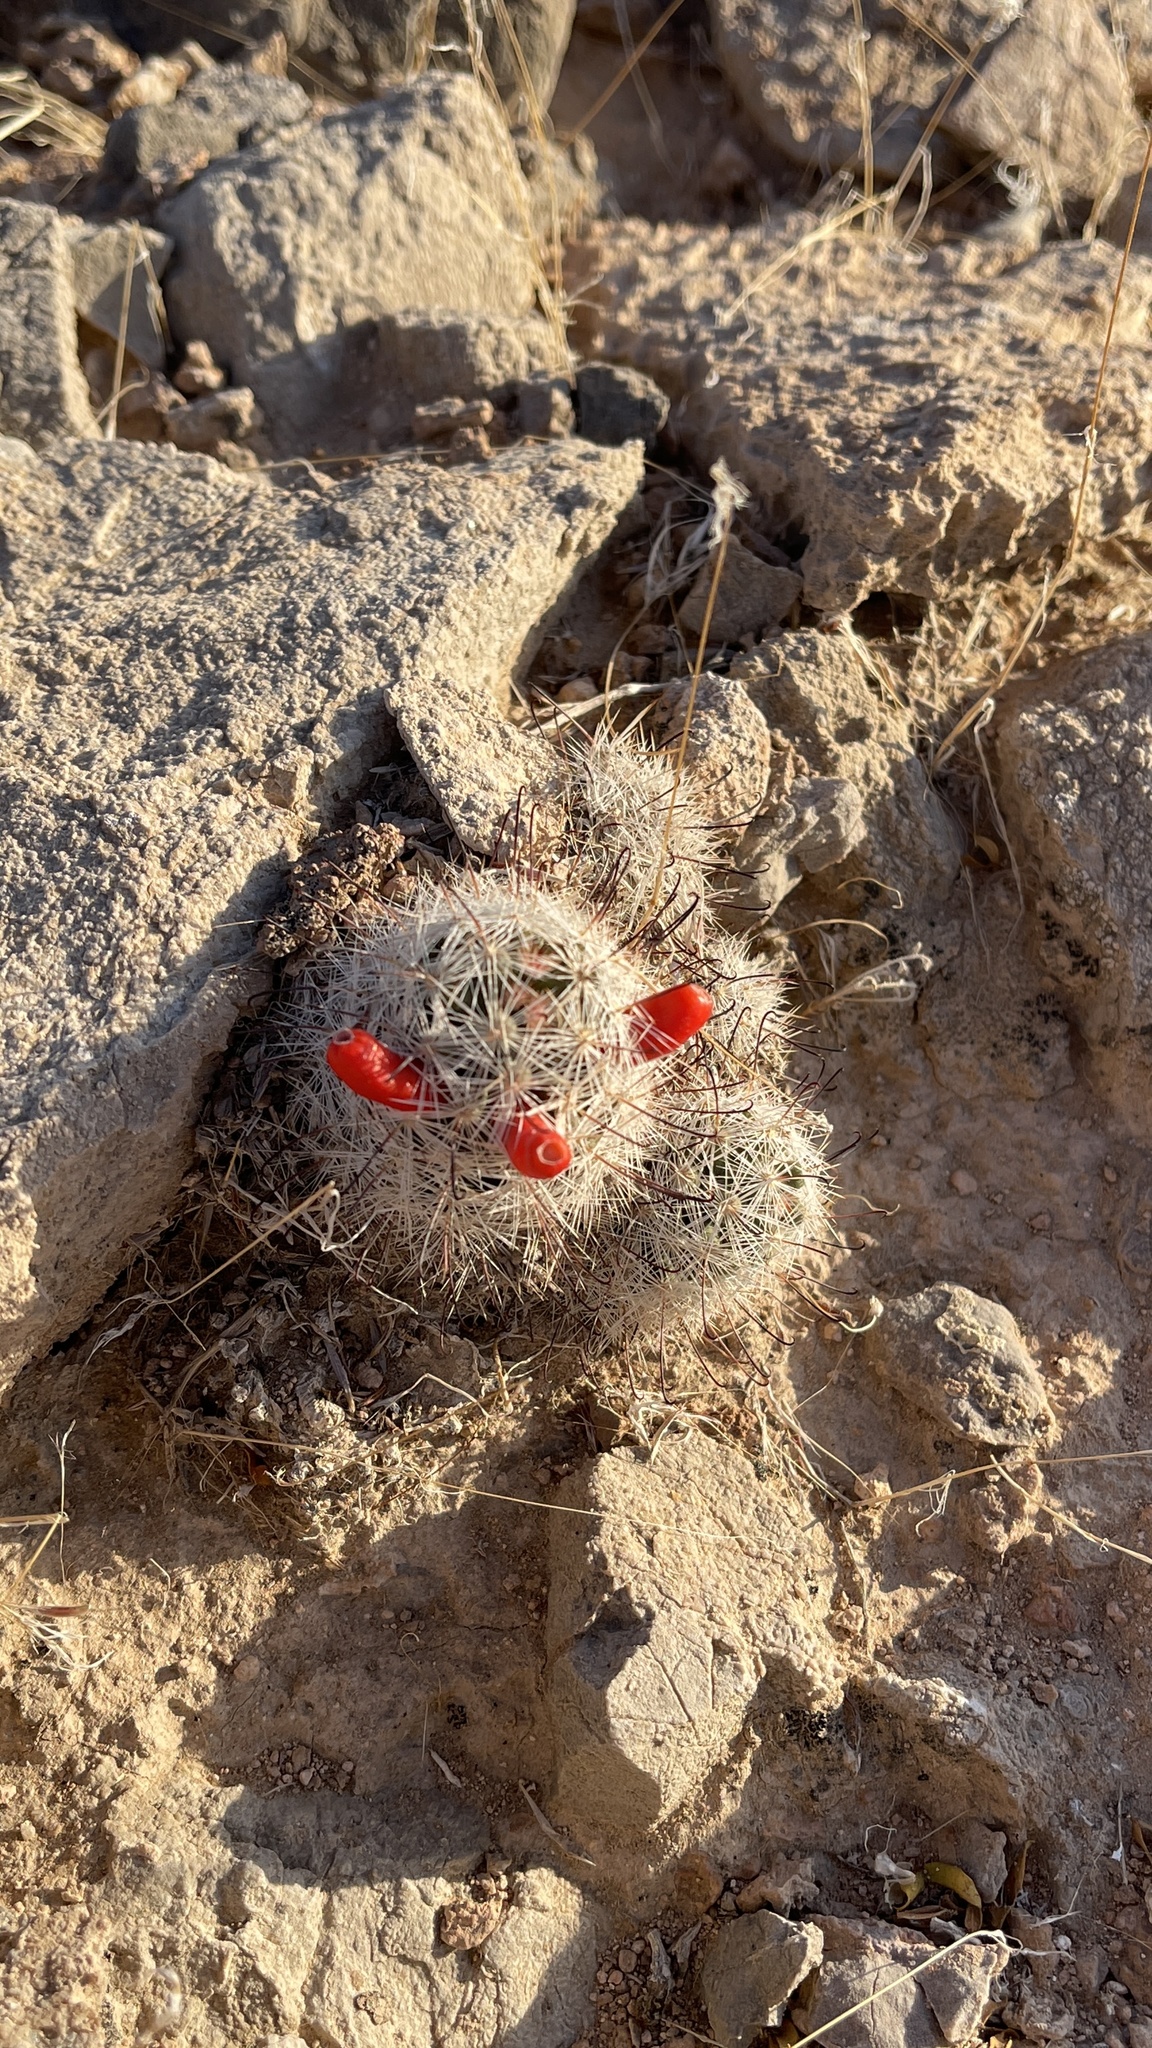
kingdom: Plantae
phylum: Tracheophyta
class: Magnoliopsida
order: Caryophyllales
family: Cactaceae
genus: Cochemiea
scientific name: Cochemiea tetrancistra
